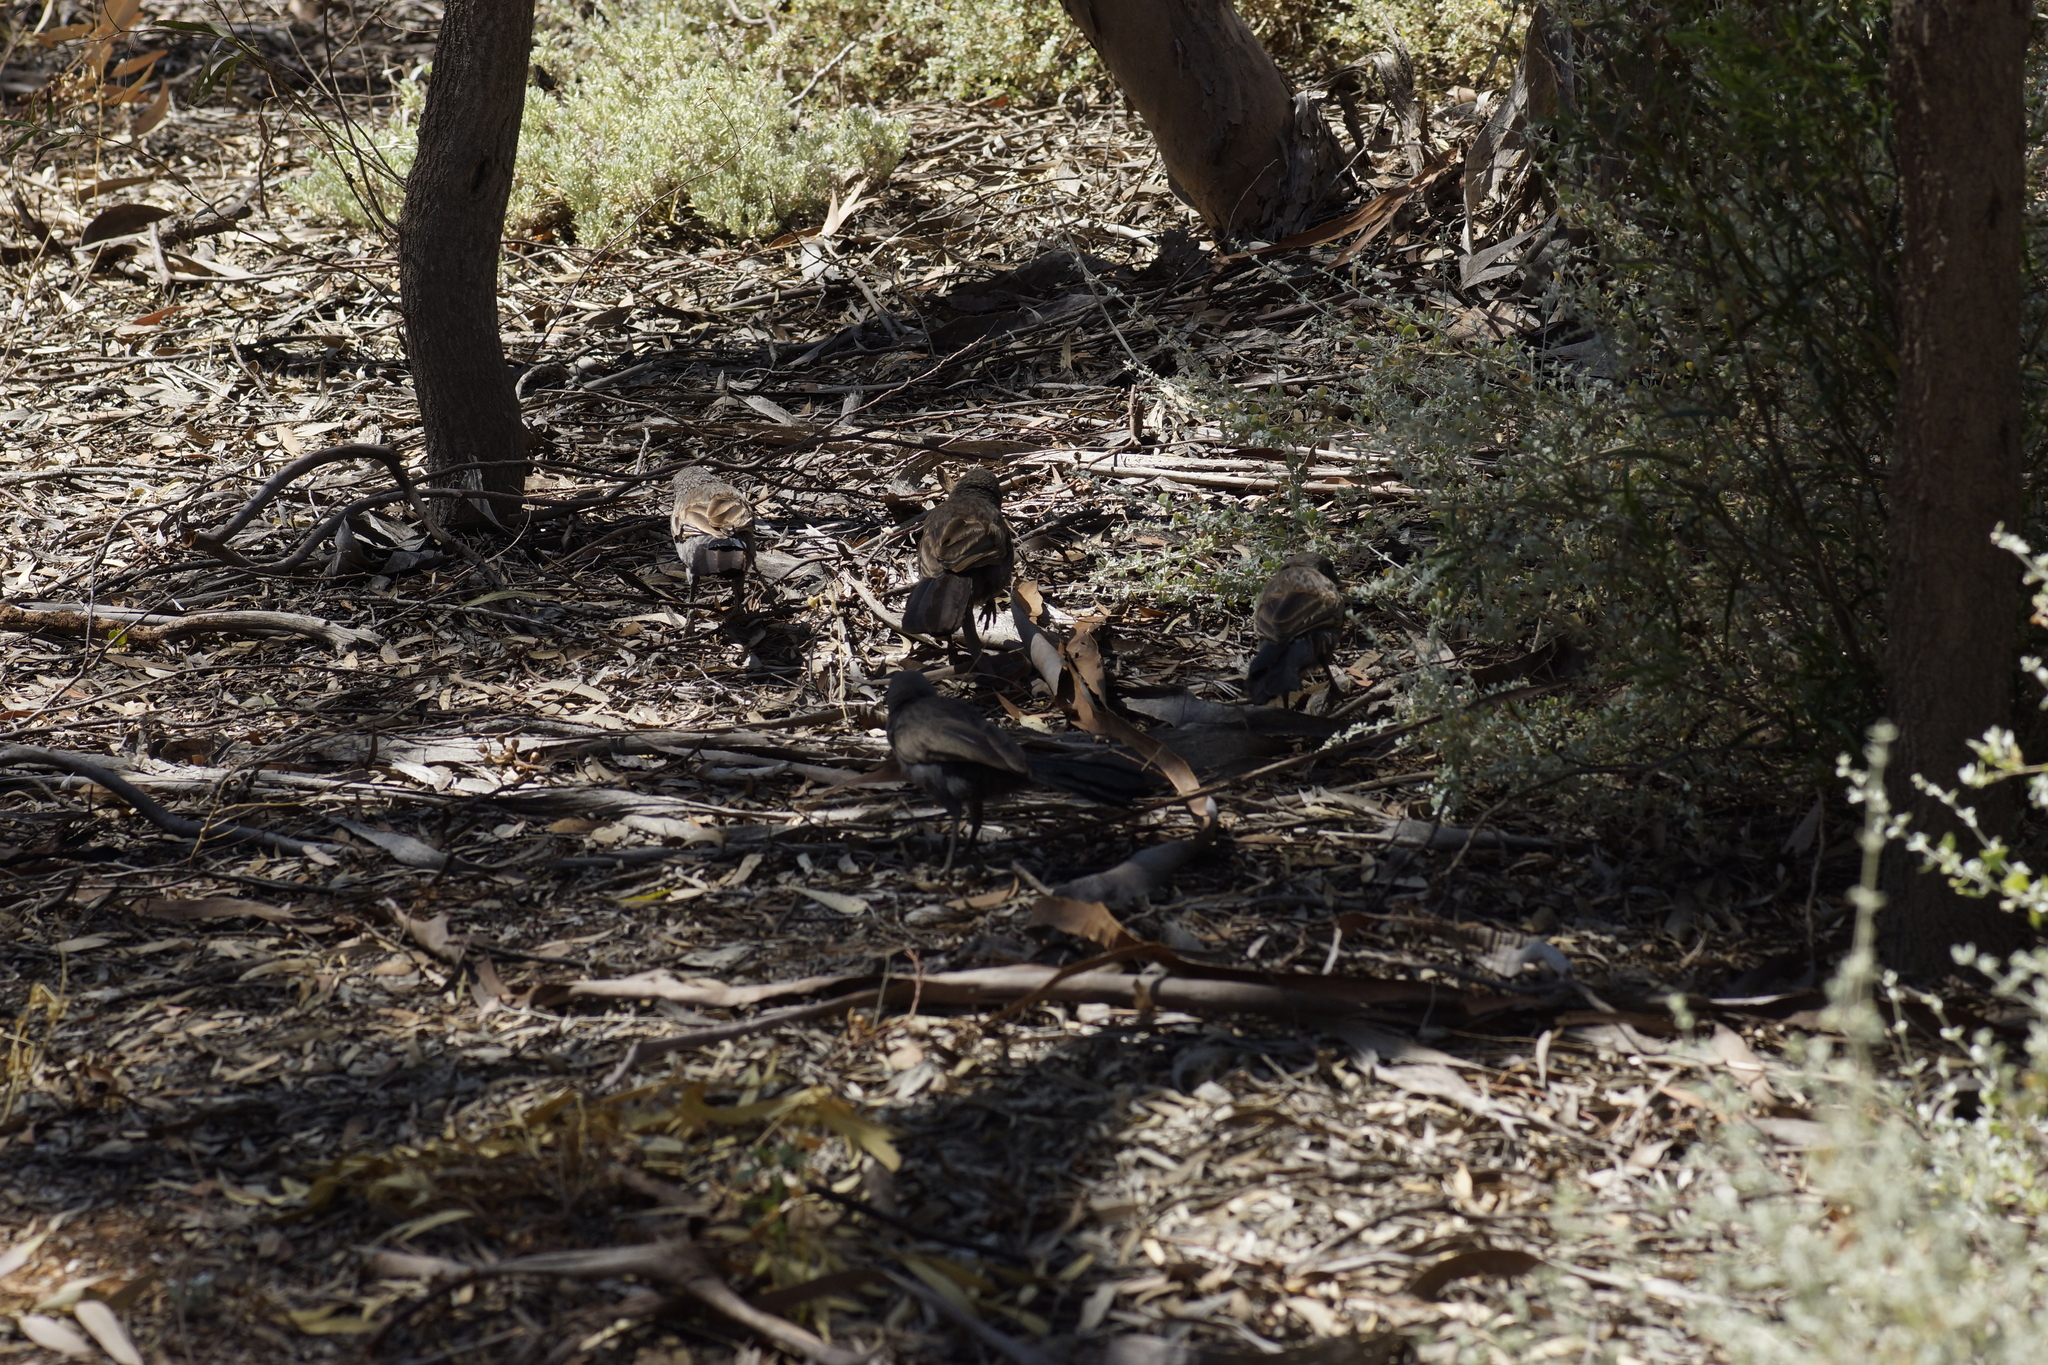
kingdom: Animalia
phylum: Chordata
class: Aves
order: Passeriformes
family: Corcoracidae
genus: Struthidea
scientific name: Struthidea cinerea
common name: Apostlebird
